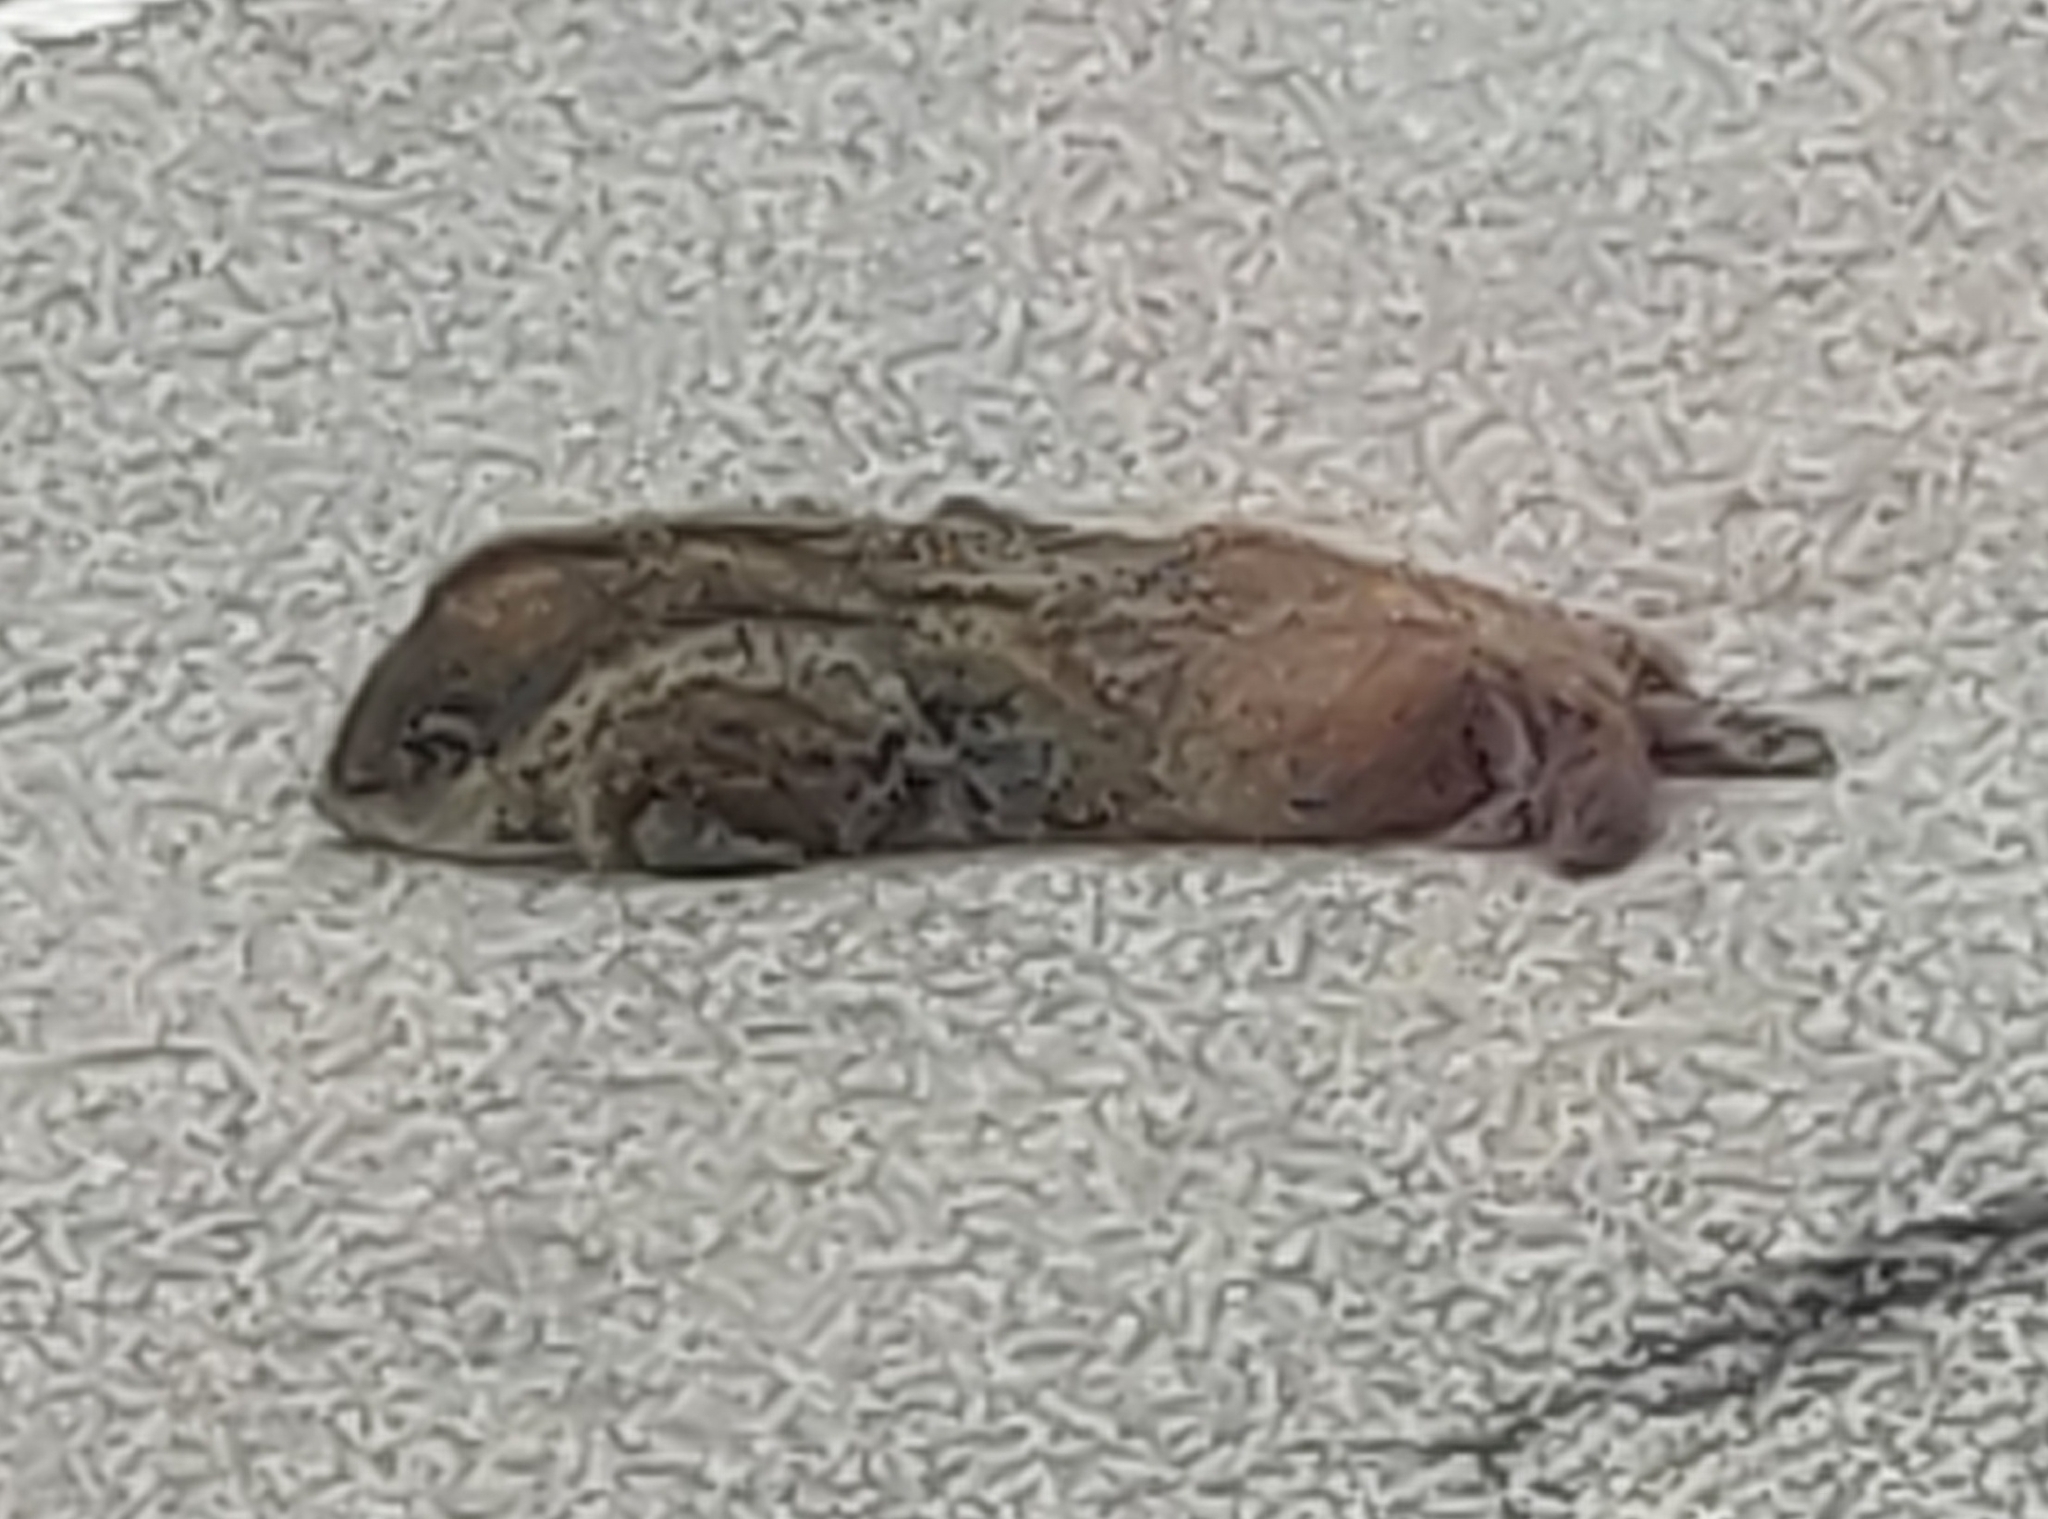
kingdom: Animalia
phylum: Chordata
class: Mammalia
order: Rodentia
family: Sciuridae
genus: Marmota
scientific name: Marmota monax
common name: Groundhog
